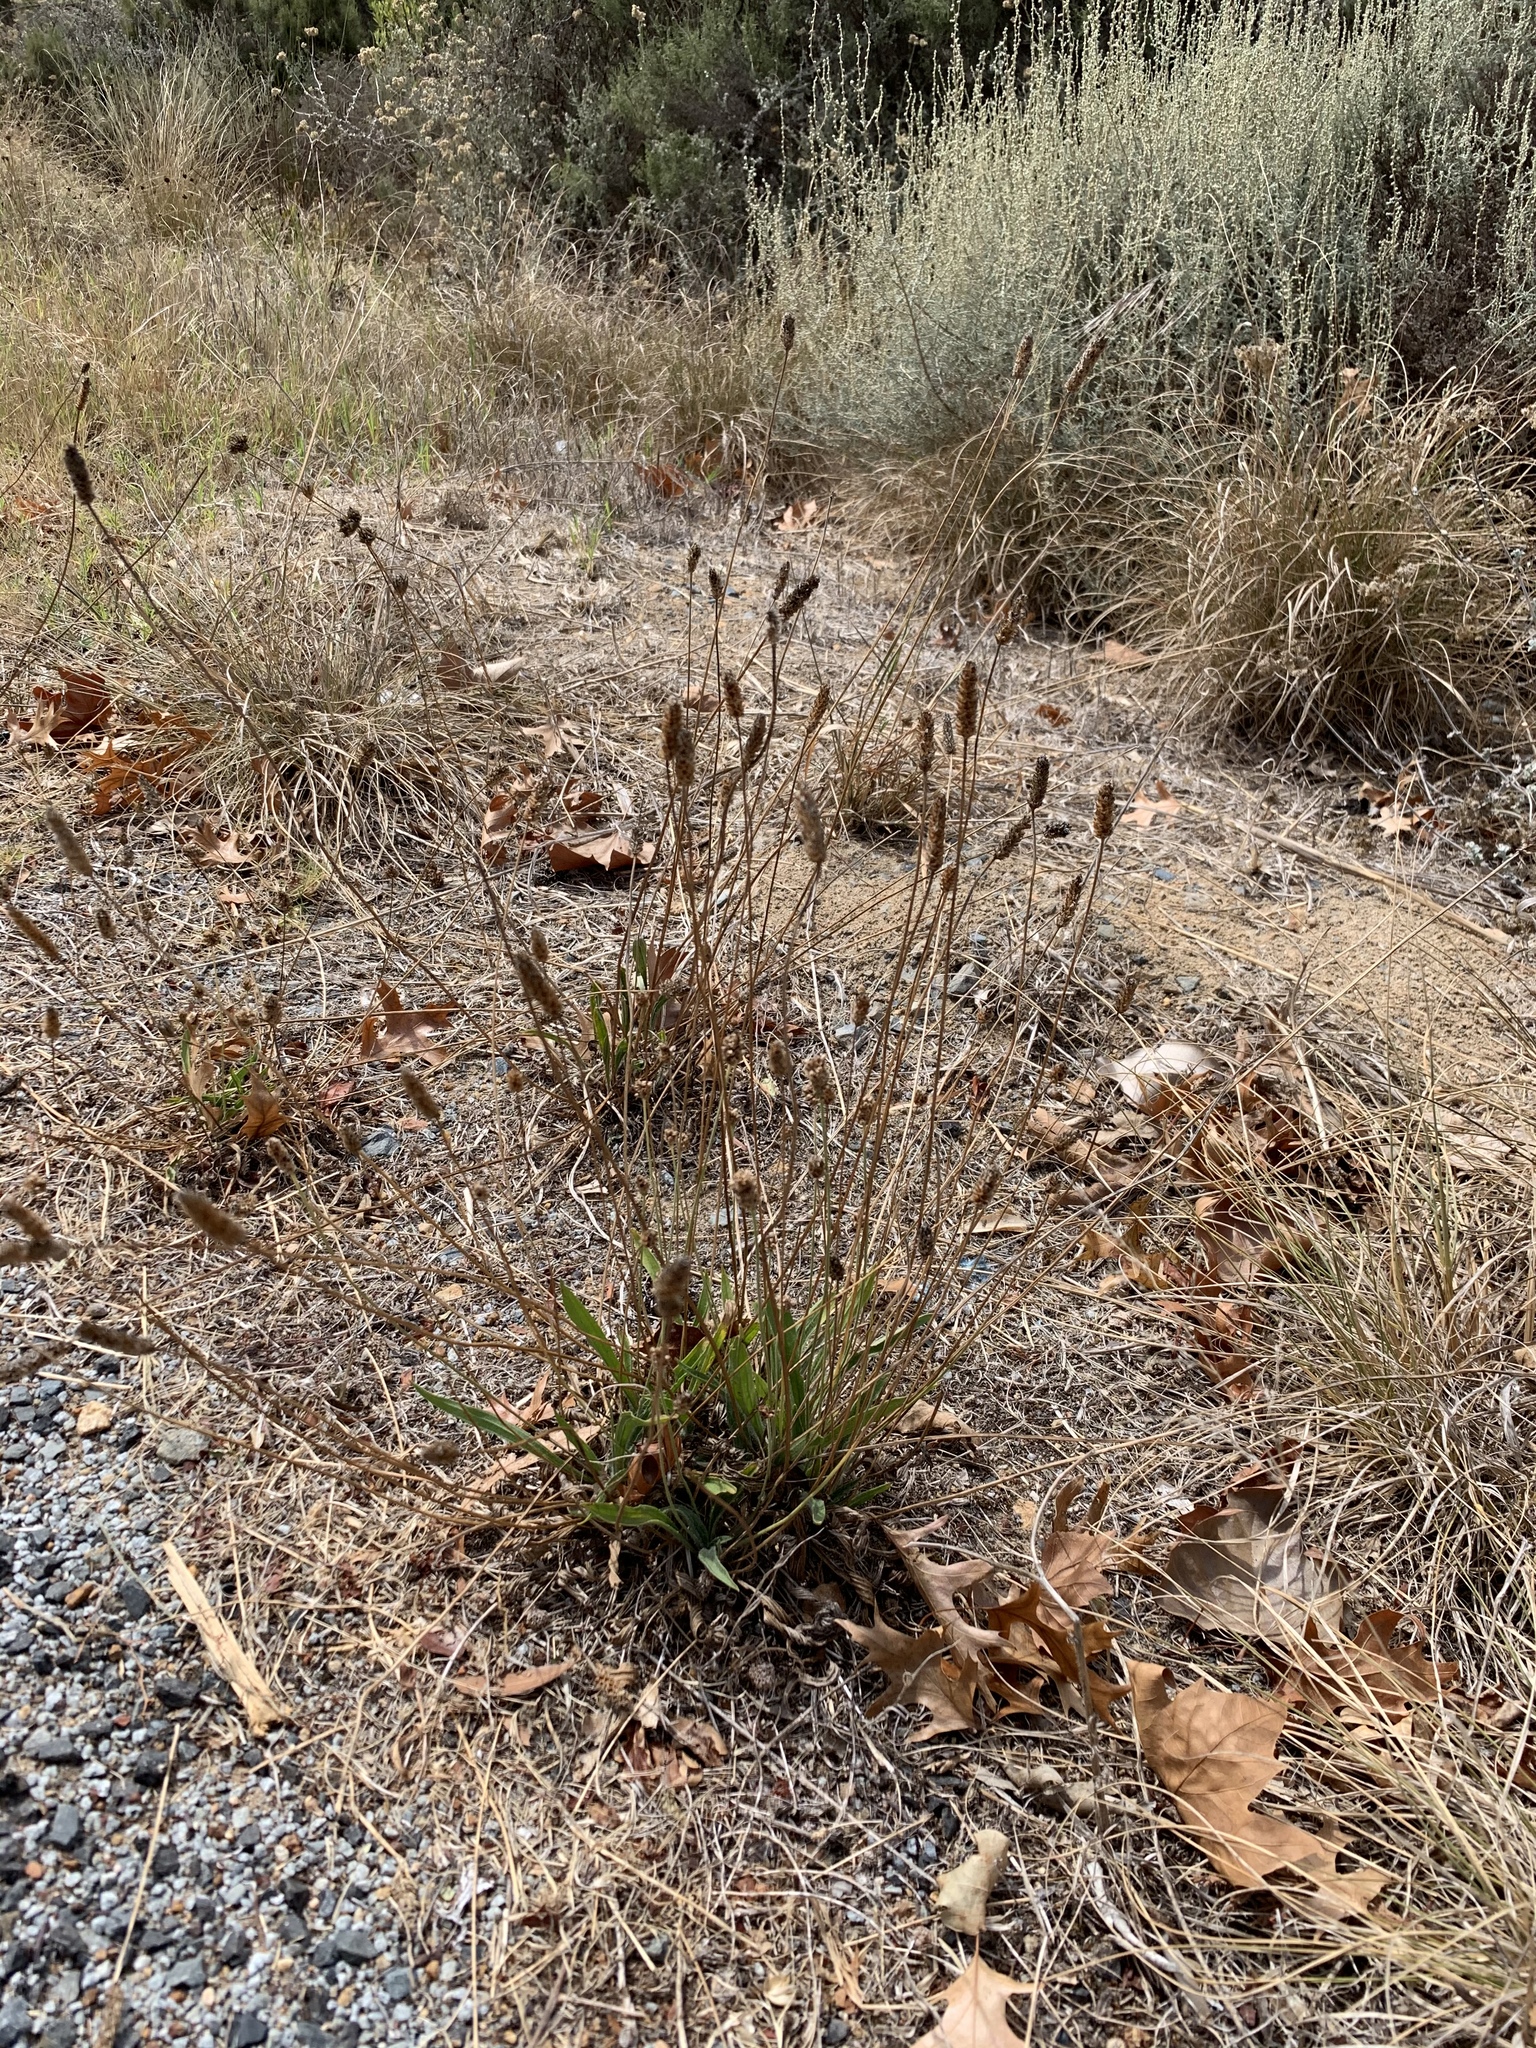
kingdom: Plantae
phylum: Tracheophyta
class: Magnoliopsida
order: Lamiales
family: Plantaginaceae
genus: Plantago
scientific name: Plantago lanceolata
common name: Ribwort plantain
